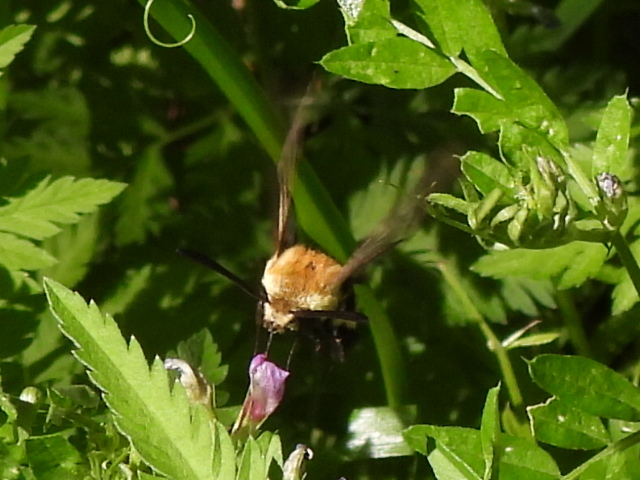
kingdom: Animalia
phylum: Arthropoda
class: Insecta
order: Lepidoptera
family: Sphingidae
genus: Hemaris
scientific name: Hemaris diffinis
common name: Bumblebee moth
